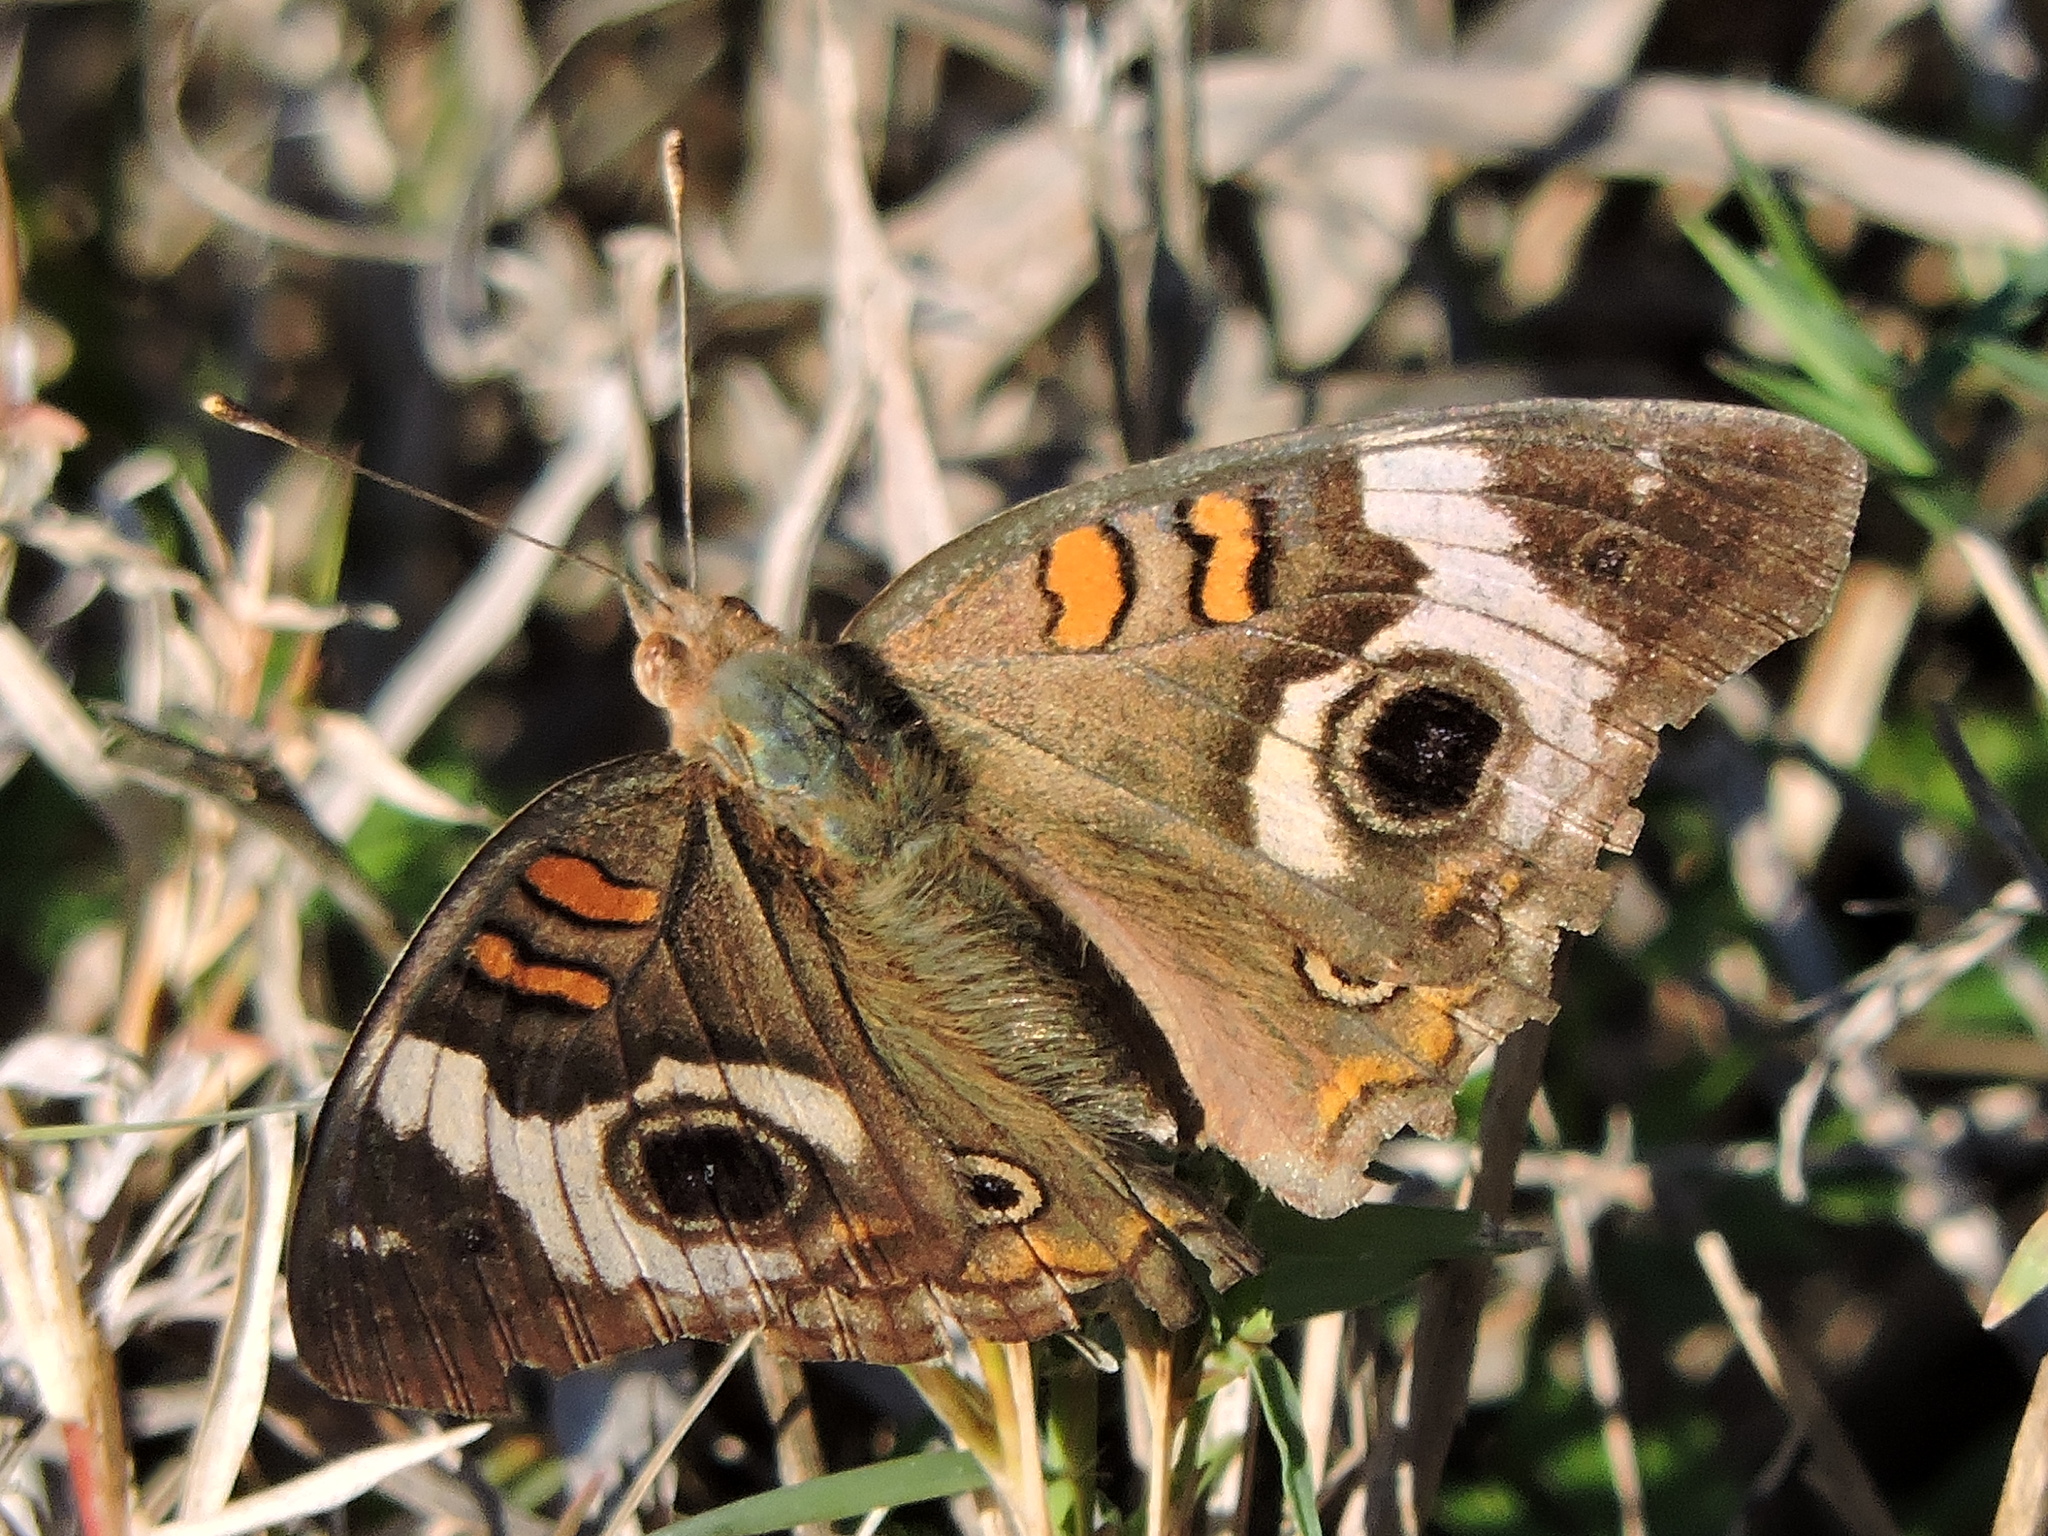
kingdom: Animalia
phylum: Arthropoda
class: Insecta
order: Lepidoptera
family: Nymphalidae
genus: Junonia
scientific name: Junonia coenia
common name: Common buckeye
